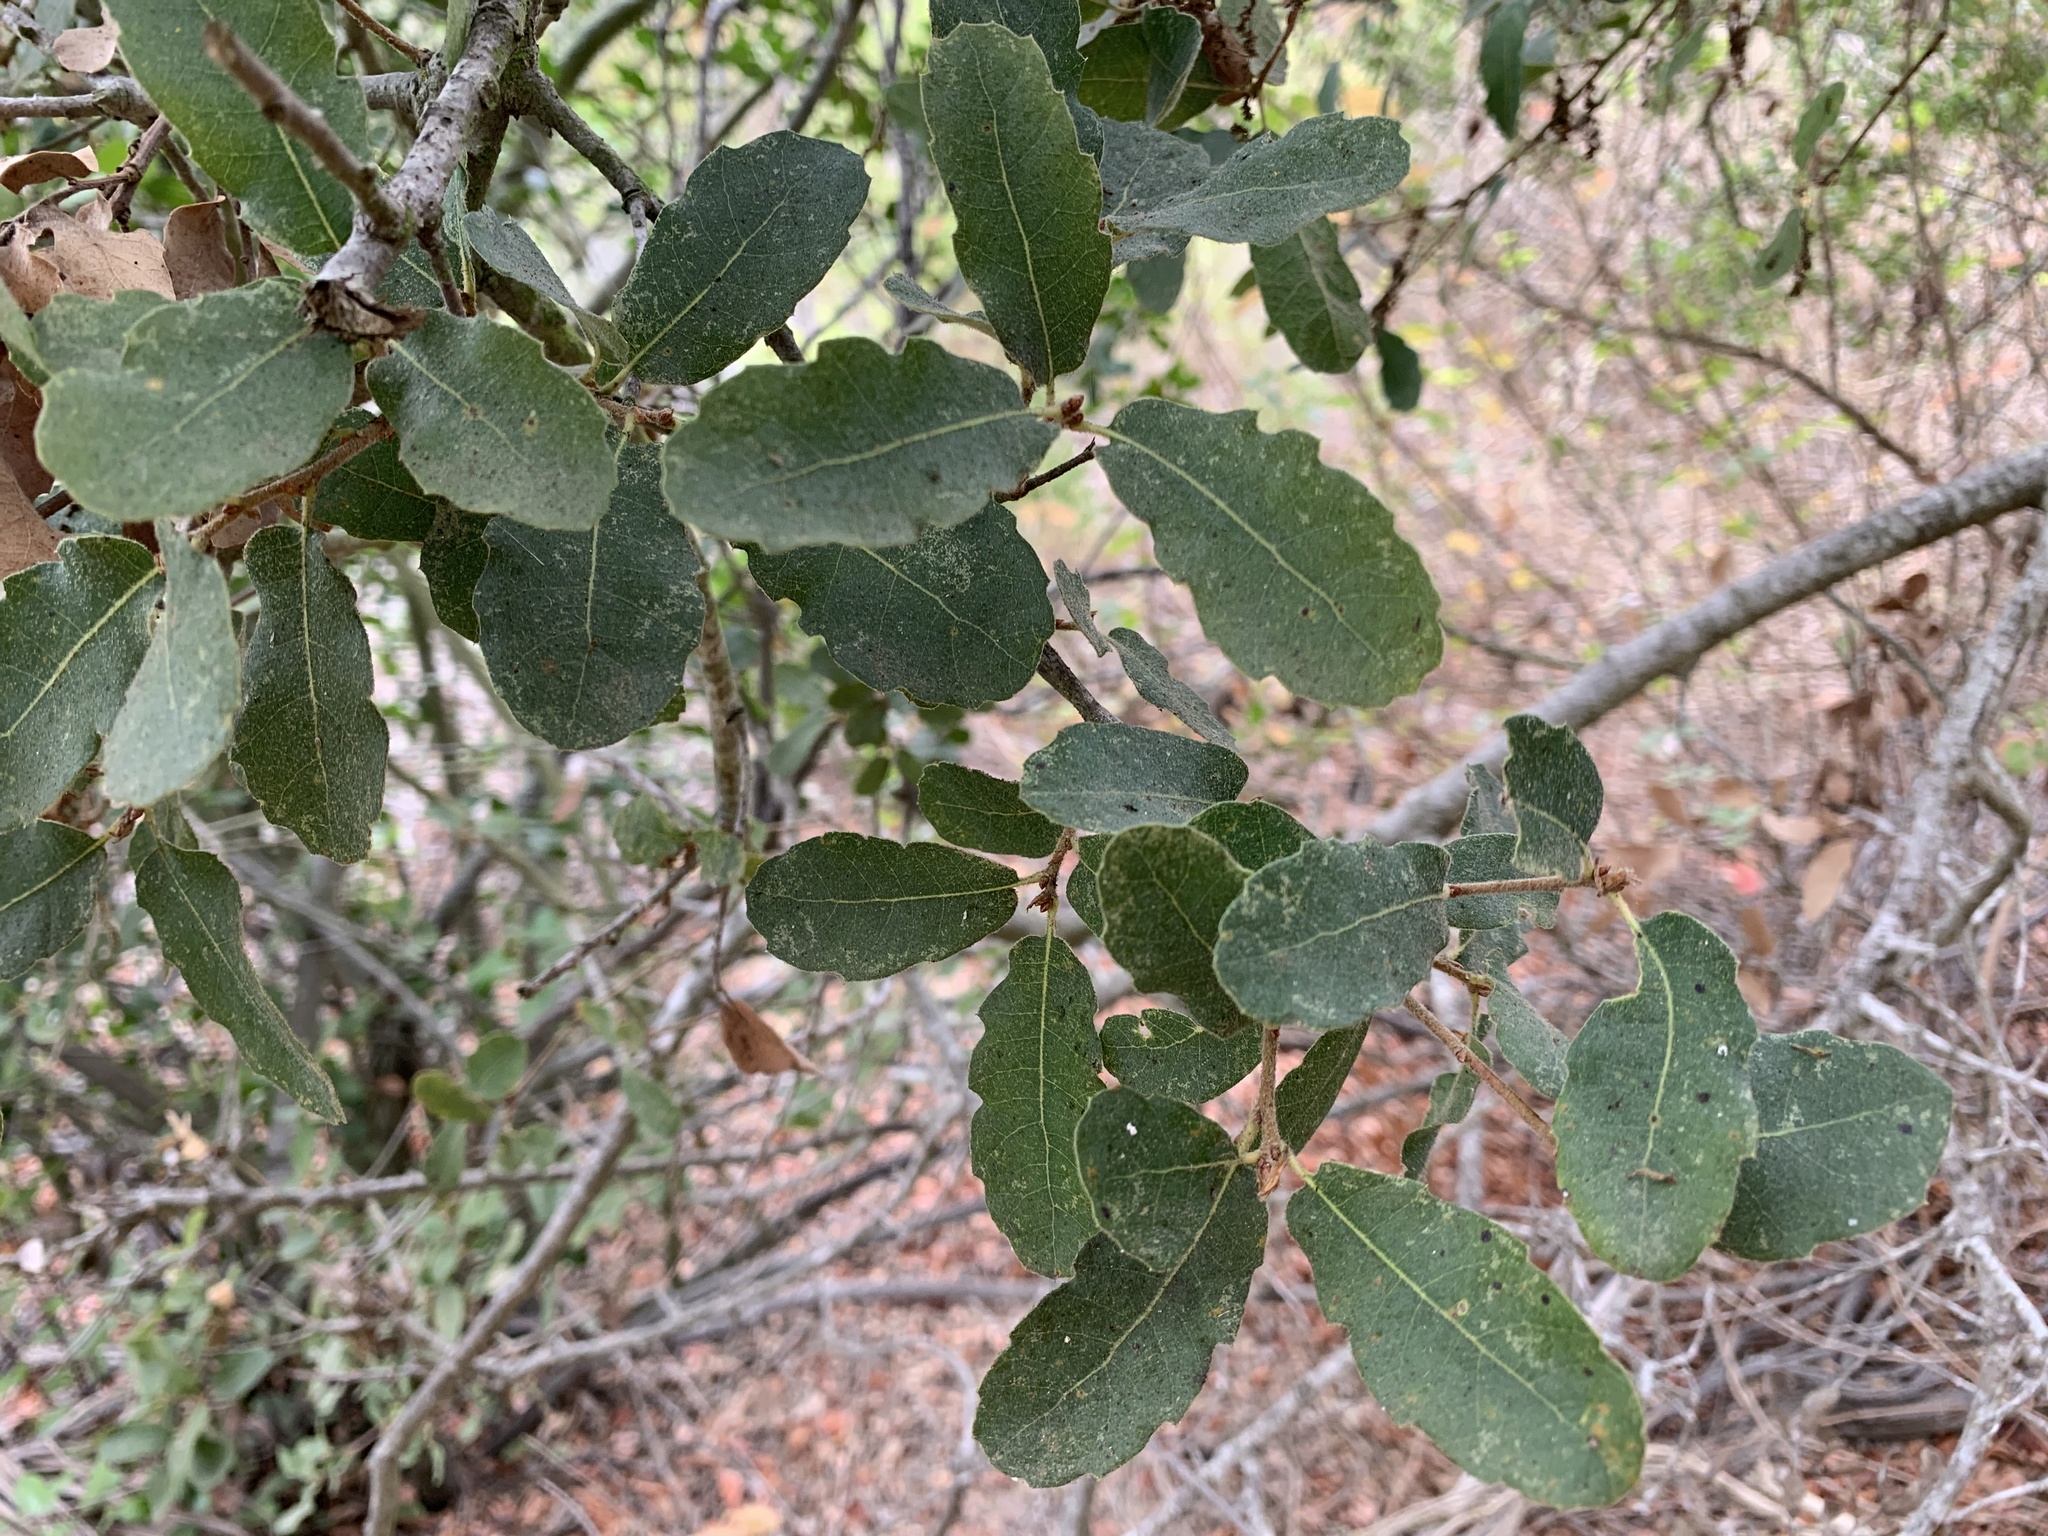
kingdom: Plantae
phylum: Tracheophyta
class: Magnoliopsida
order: Fagales
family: Fagaceae
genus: Quercus
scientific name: Quercus engelmannii
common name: Engelmann oak
